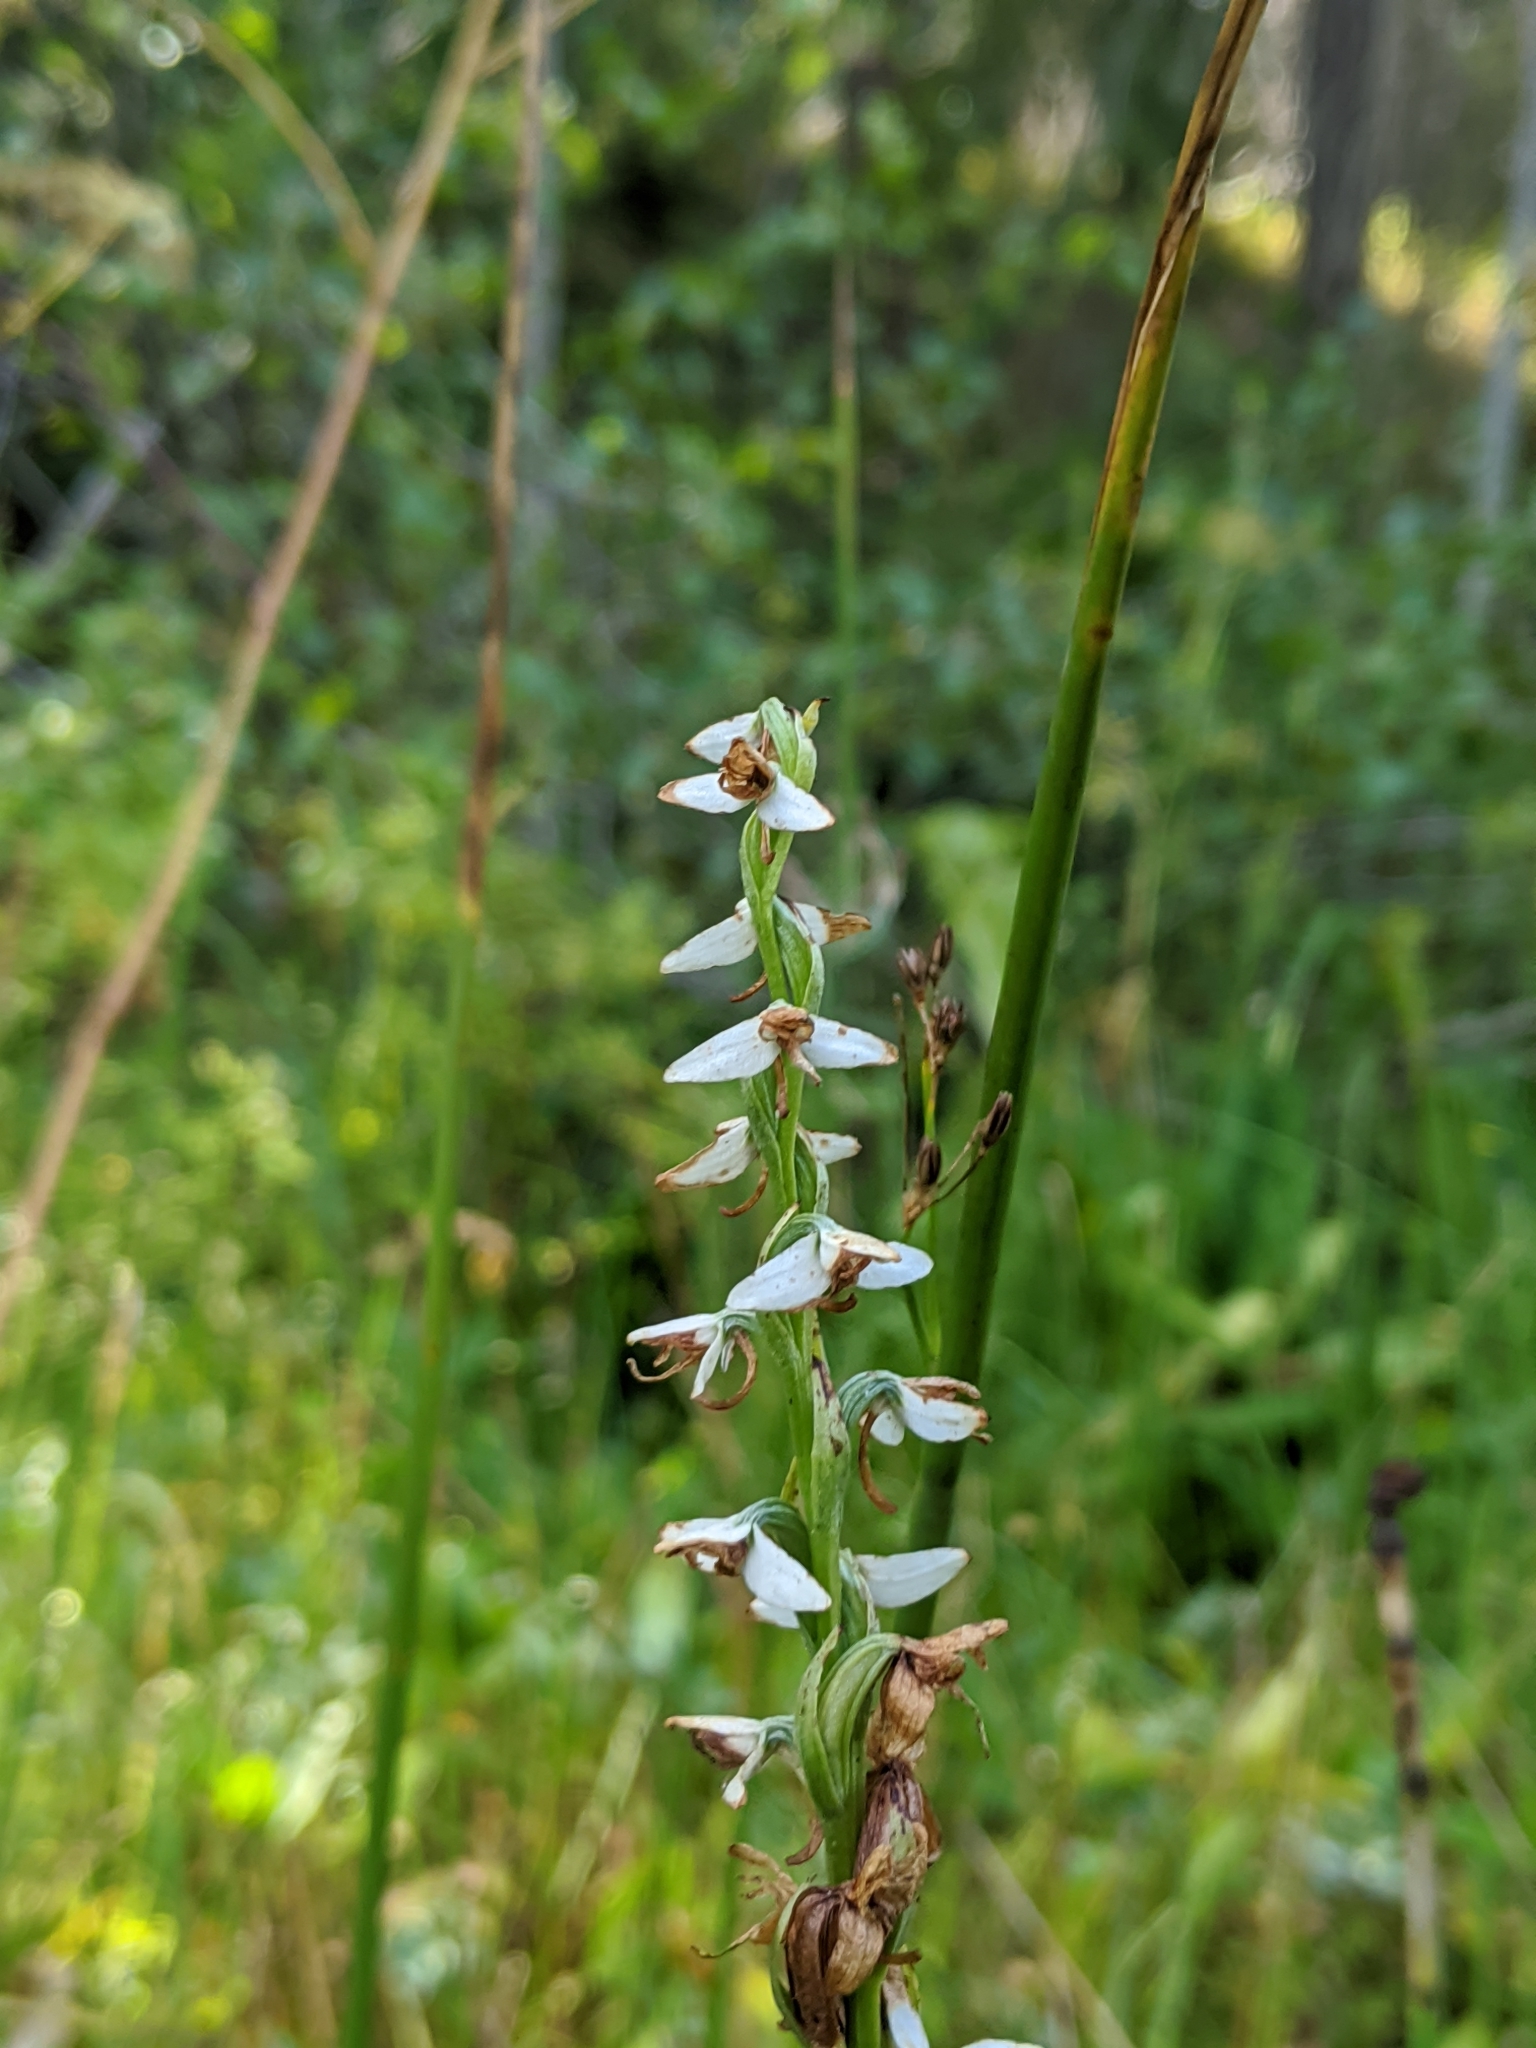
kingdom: Plantae
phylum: Tracheophyta
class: Liliopsida
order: Asparagales
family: Orchidaceae
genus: Platanthera
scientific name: Platanthera dilatata
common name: Bog candles
